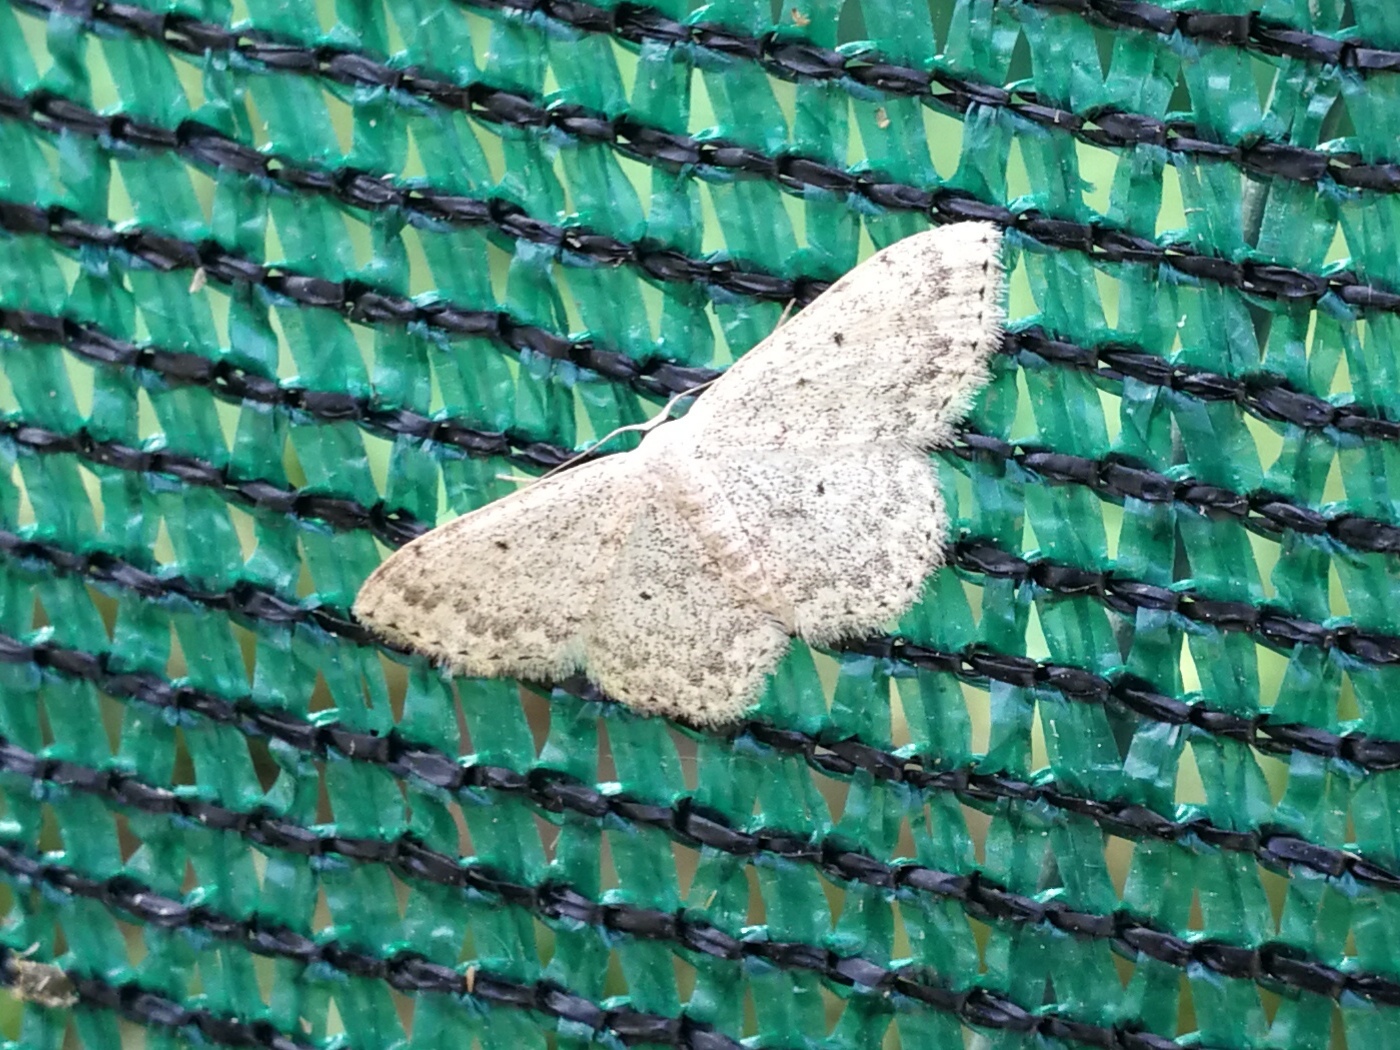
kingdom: Animalia
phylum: Arthropoda
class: Insecta
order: Lepidoptera
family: Geometridae
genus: Scopula
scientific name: Scopula marginepunctata
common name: Mullein wave
